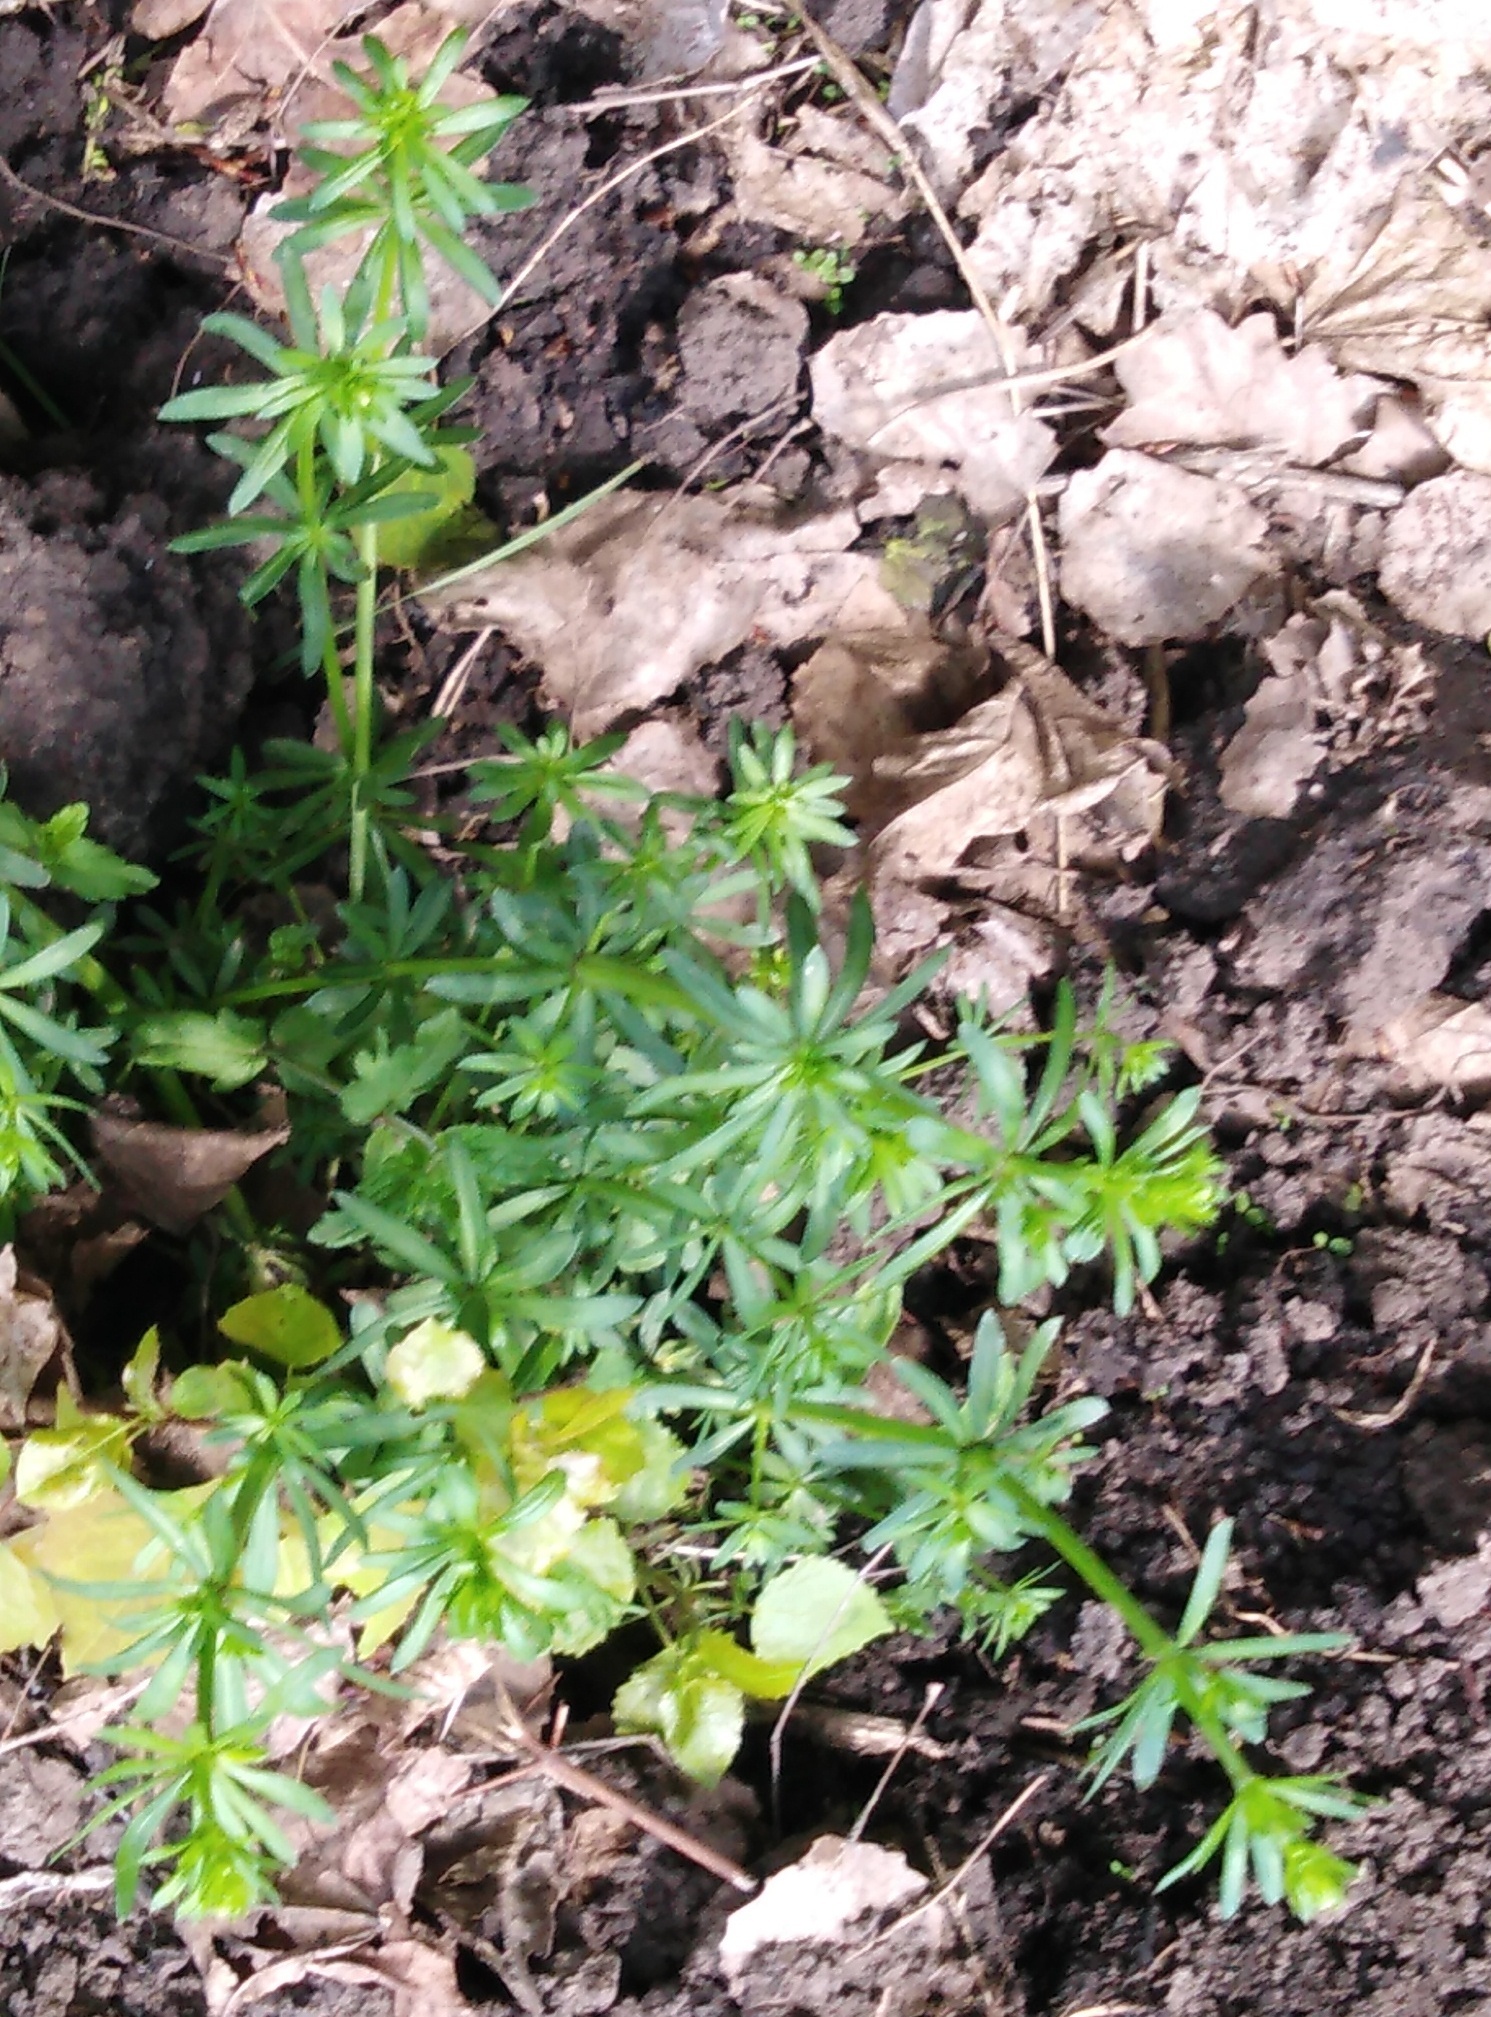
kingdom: Plantae
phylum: Tracheophyta
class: Magnoliopsida
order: Gentianales
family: Rubiaceae
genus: Galium
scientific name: Galium mollugo
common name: Hedge bedstraw
